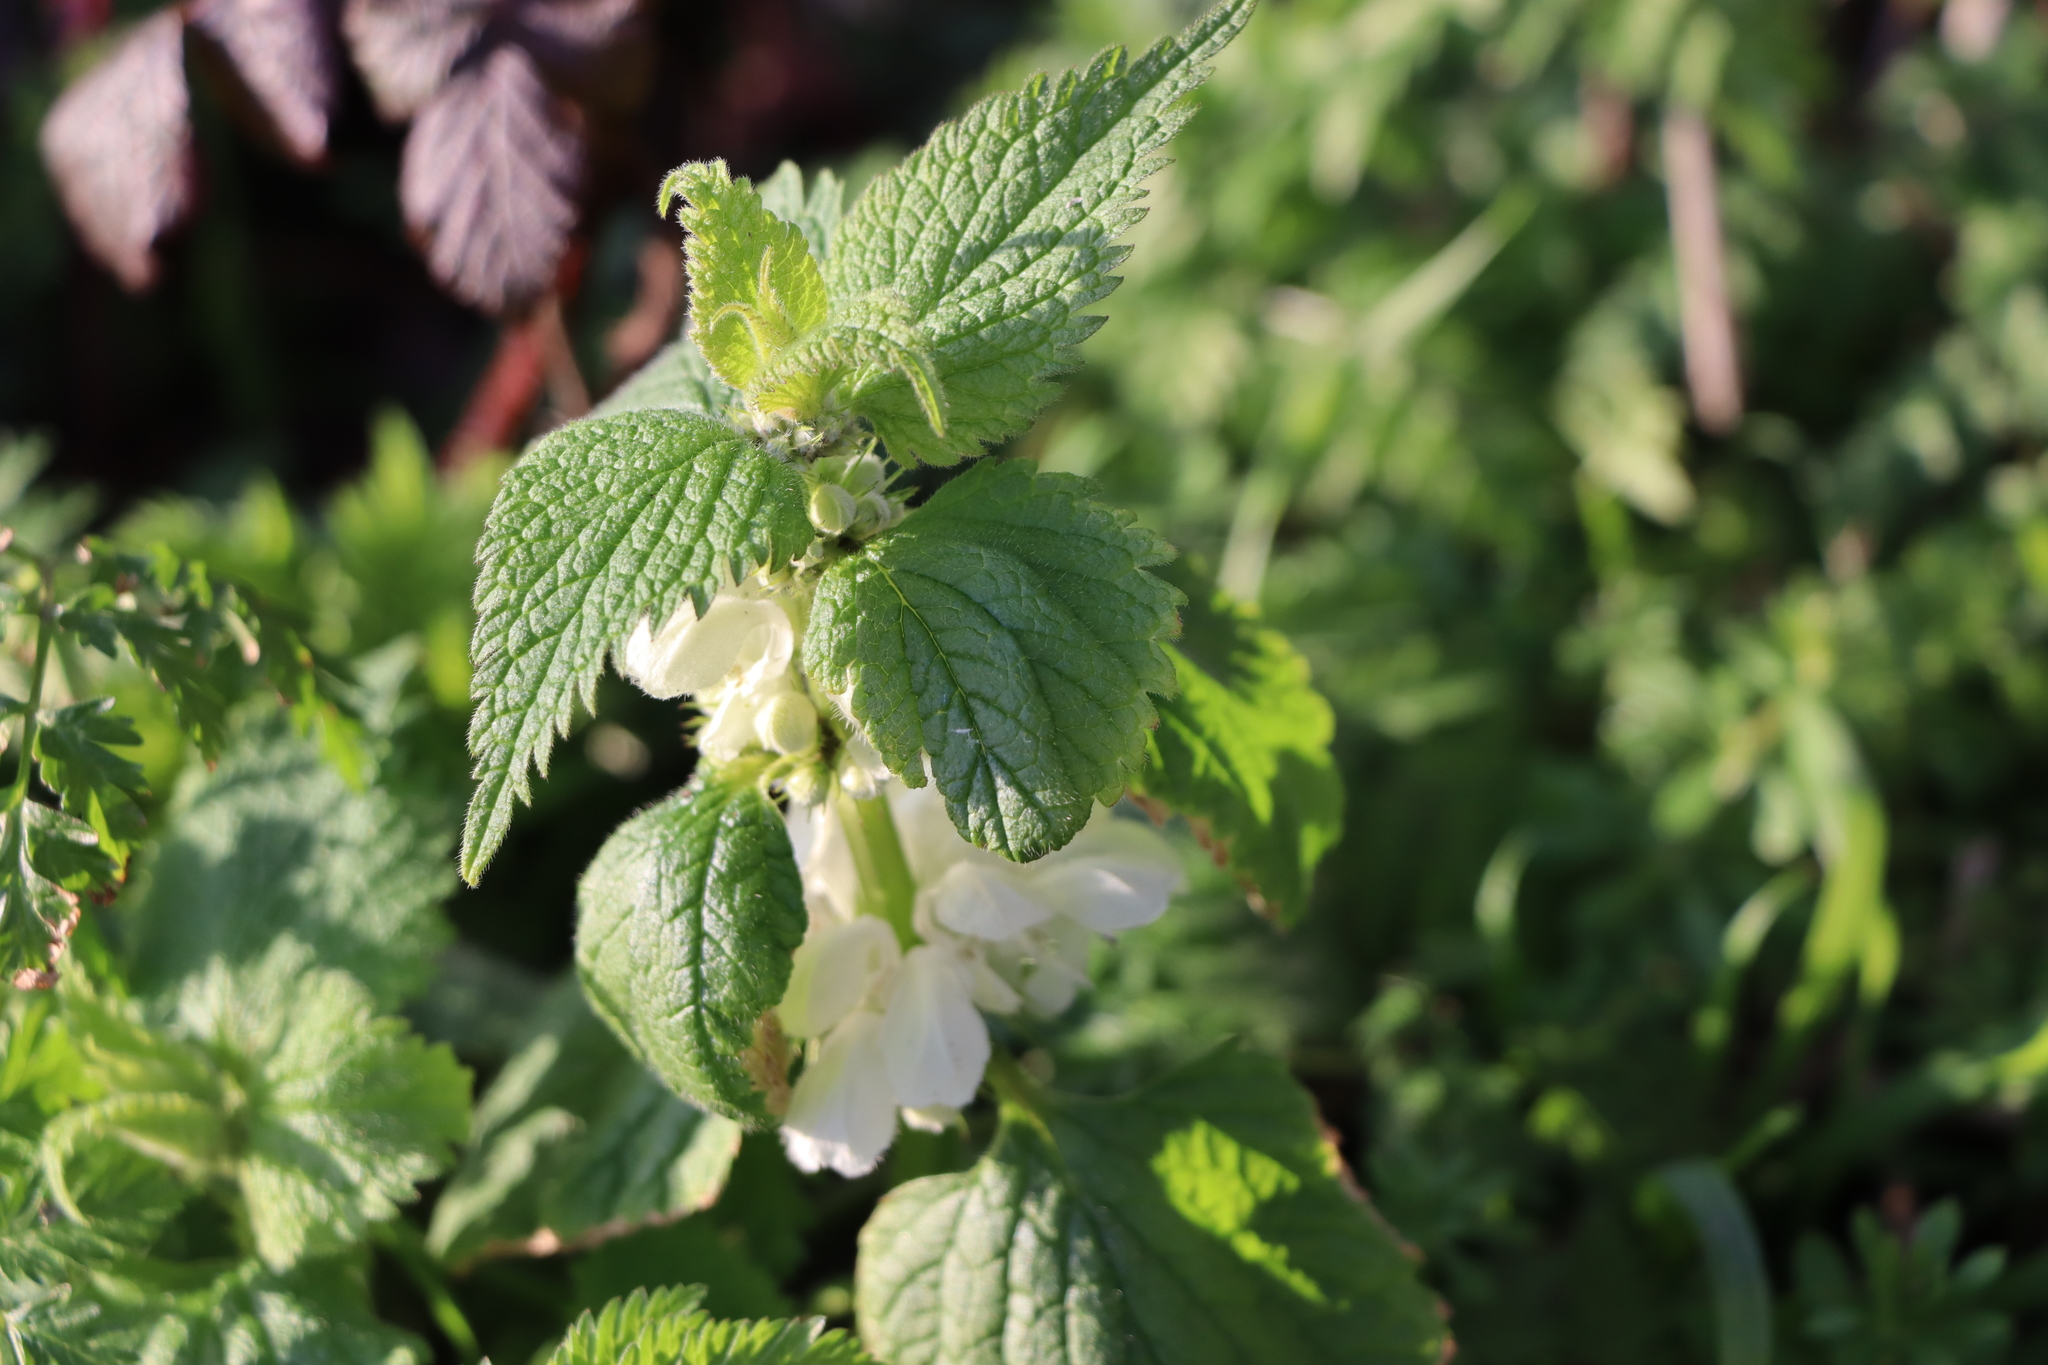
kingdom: Plantae
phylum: Tracheophyta
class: Magnoliopsida
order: Lamiales
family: Lamiaceae
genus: Lamium
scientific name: Lamium album
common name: White dead-nettle
